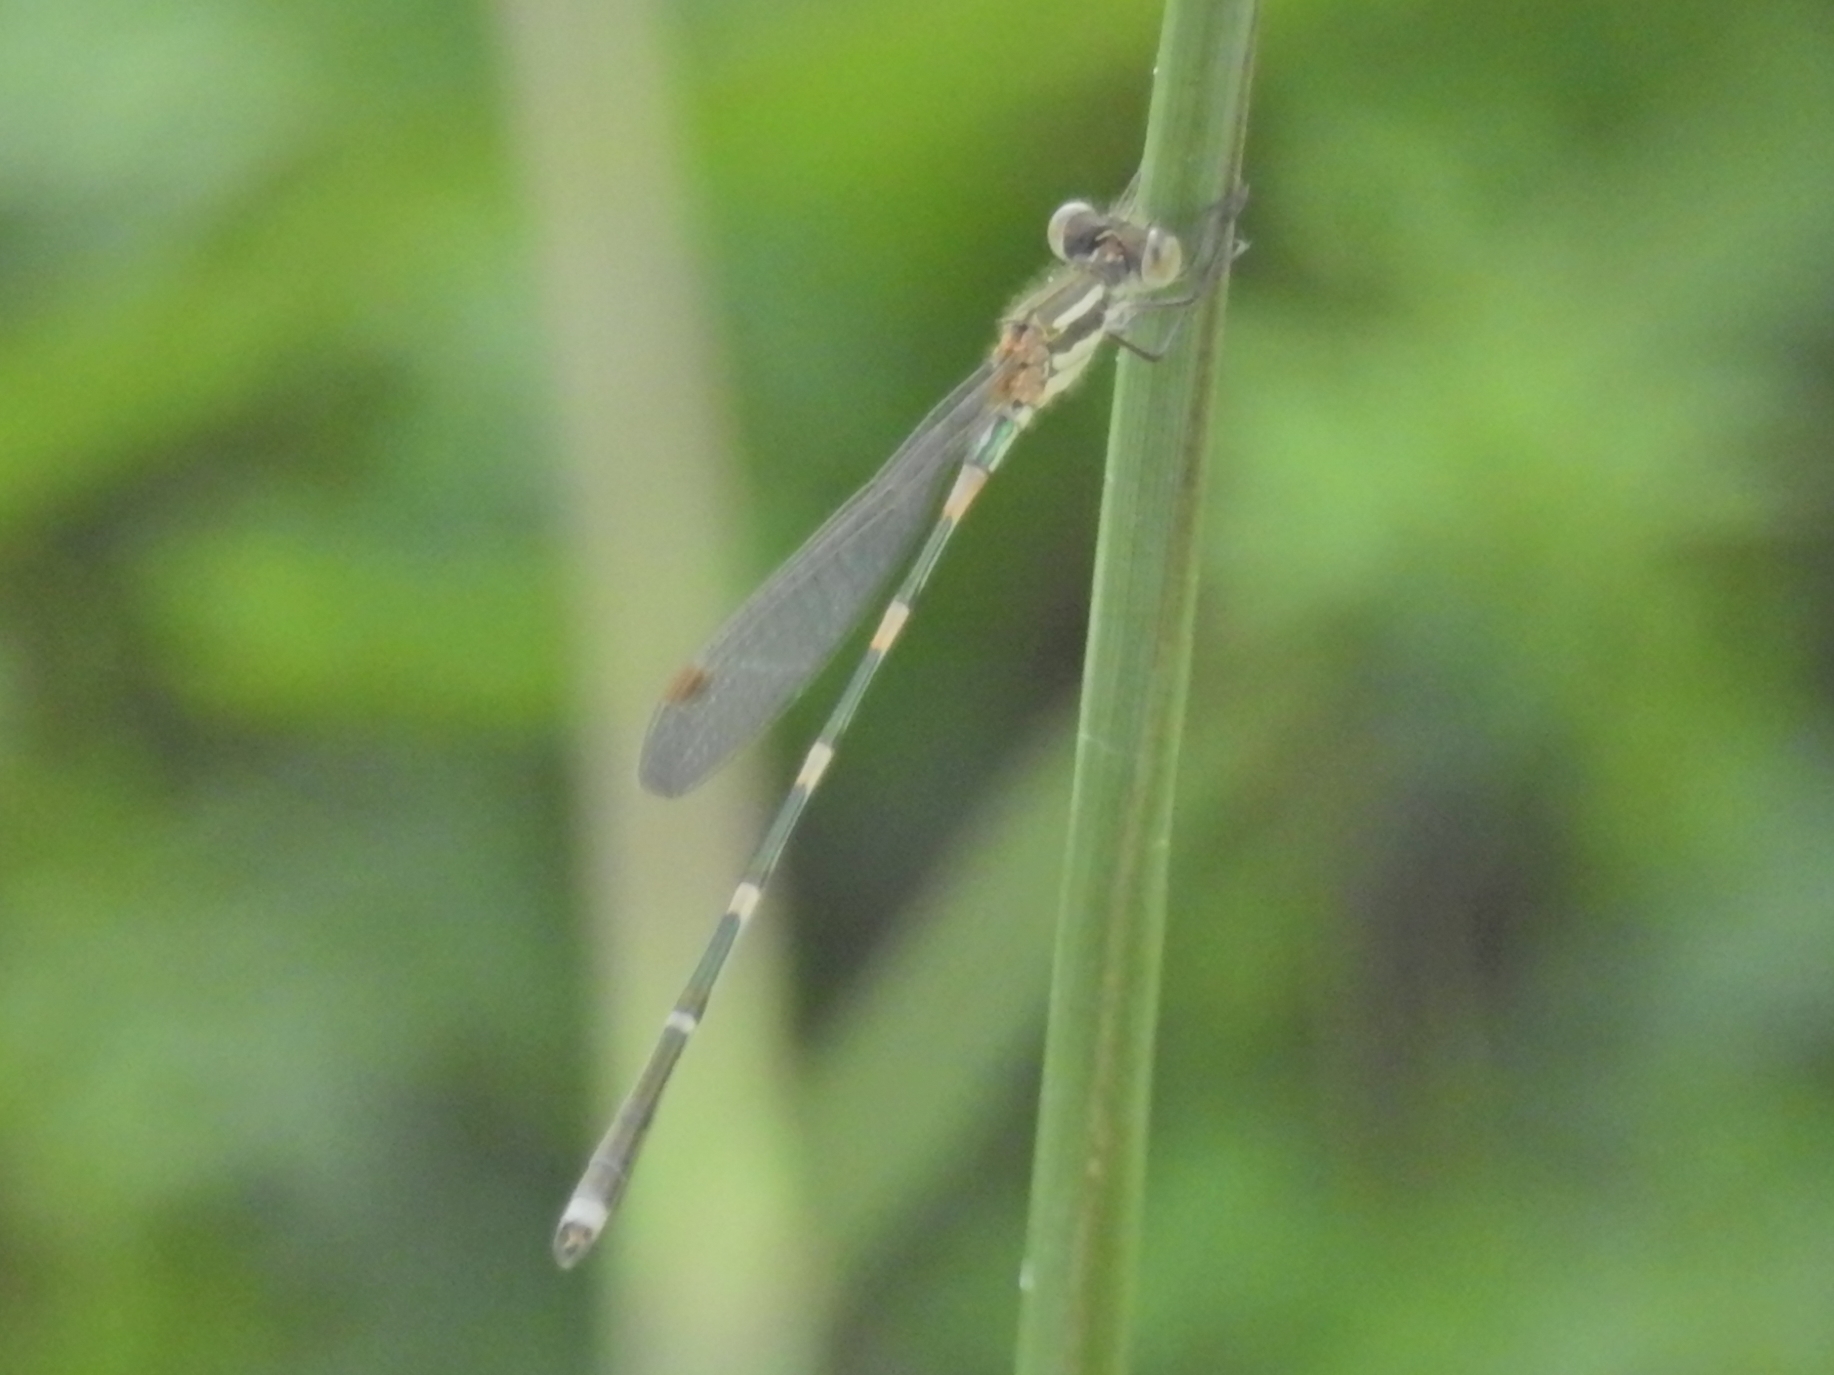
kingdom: Animalia
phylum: Arthropoda
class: Insecta
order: Odonata
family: Lestidae
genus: Austrolestes
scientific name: Austrolestes leda
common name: Wandering ringtail
